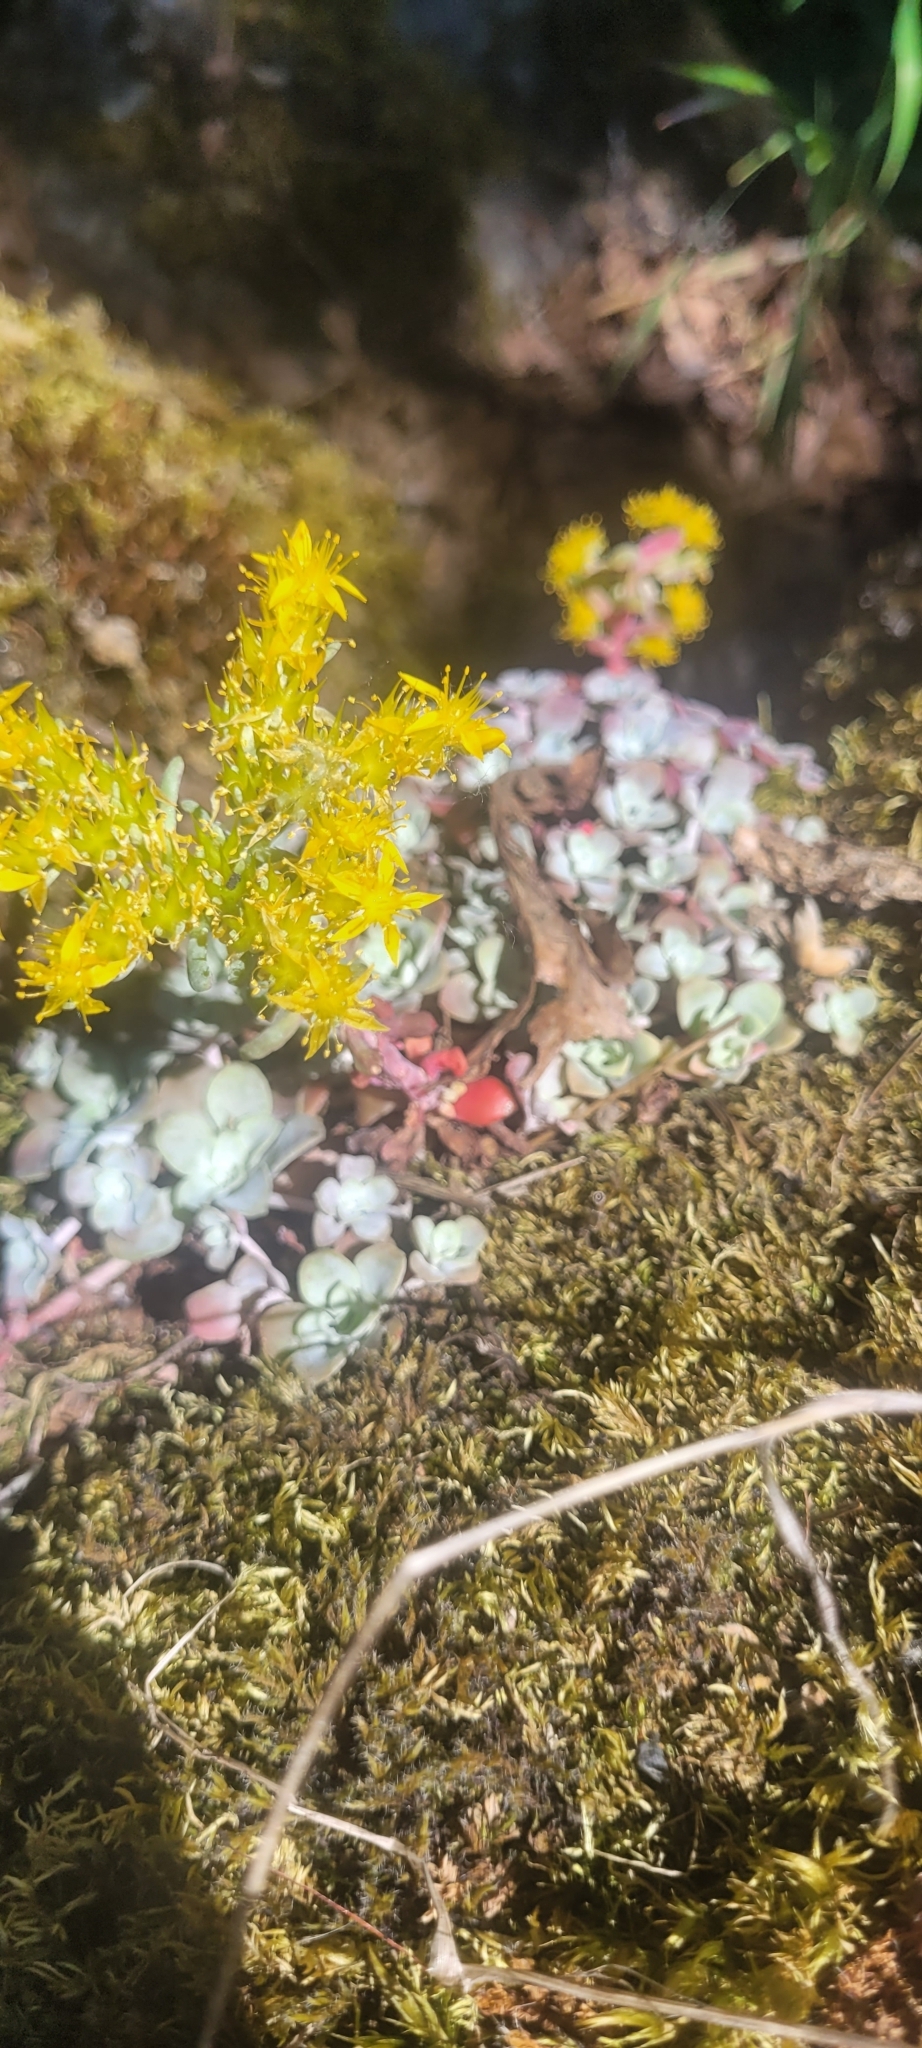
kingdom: Plantae
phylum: Tracheophyta
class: Magnoliopsida
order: Saxifragales
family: Crassulaceae
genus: Sedum
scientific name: Sedum spathulifolium
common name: Colorado stonecrop
